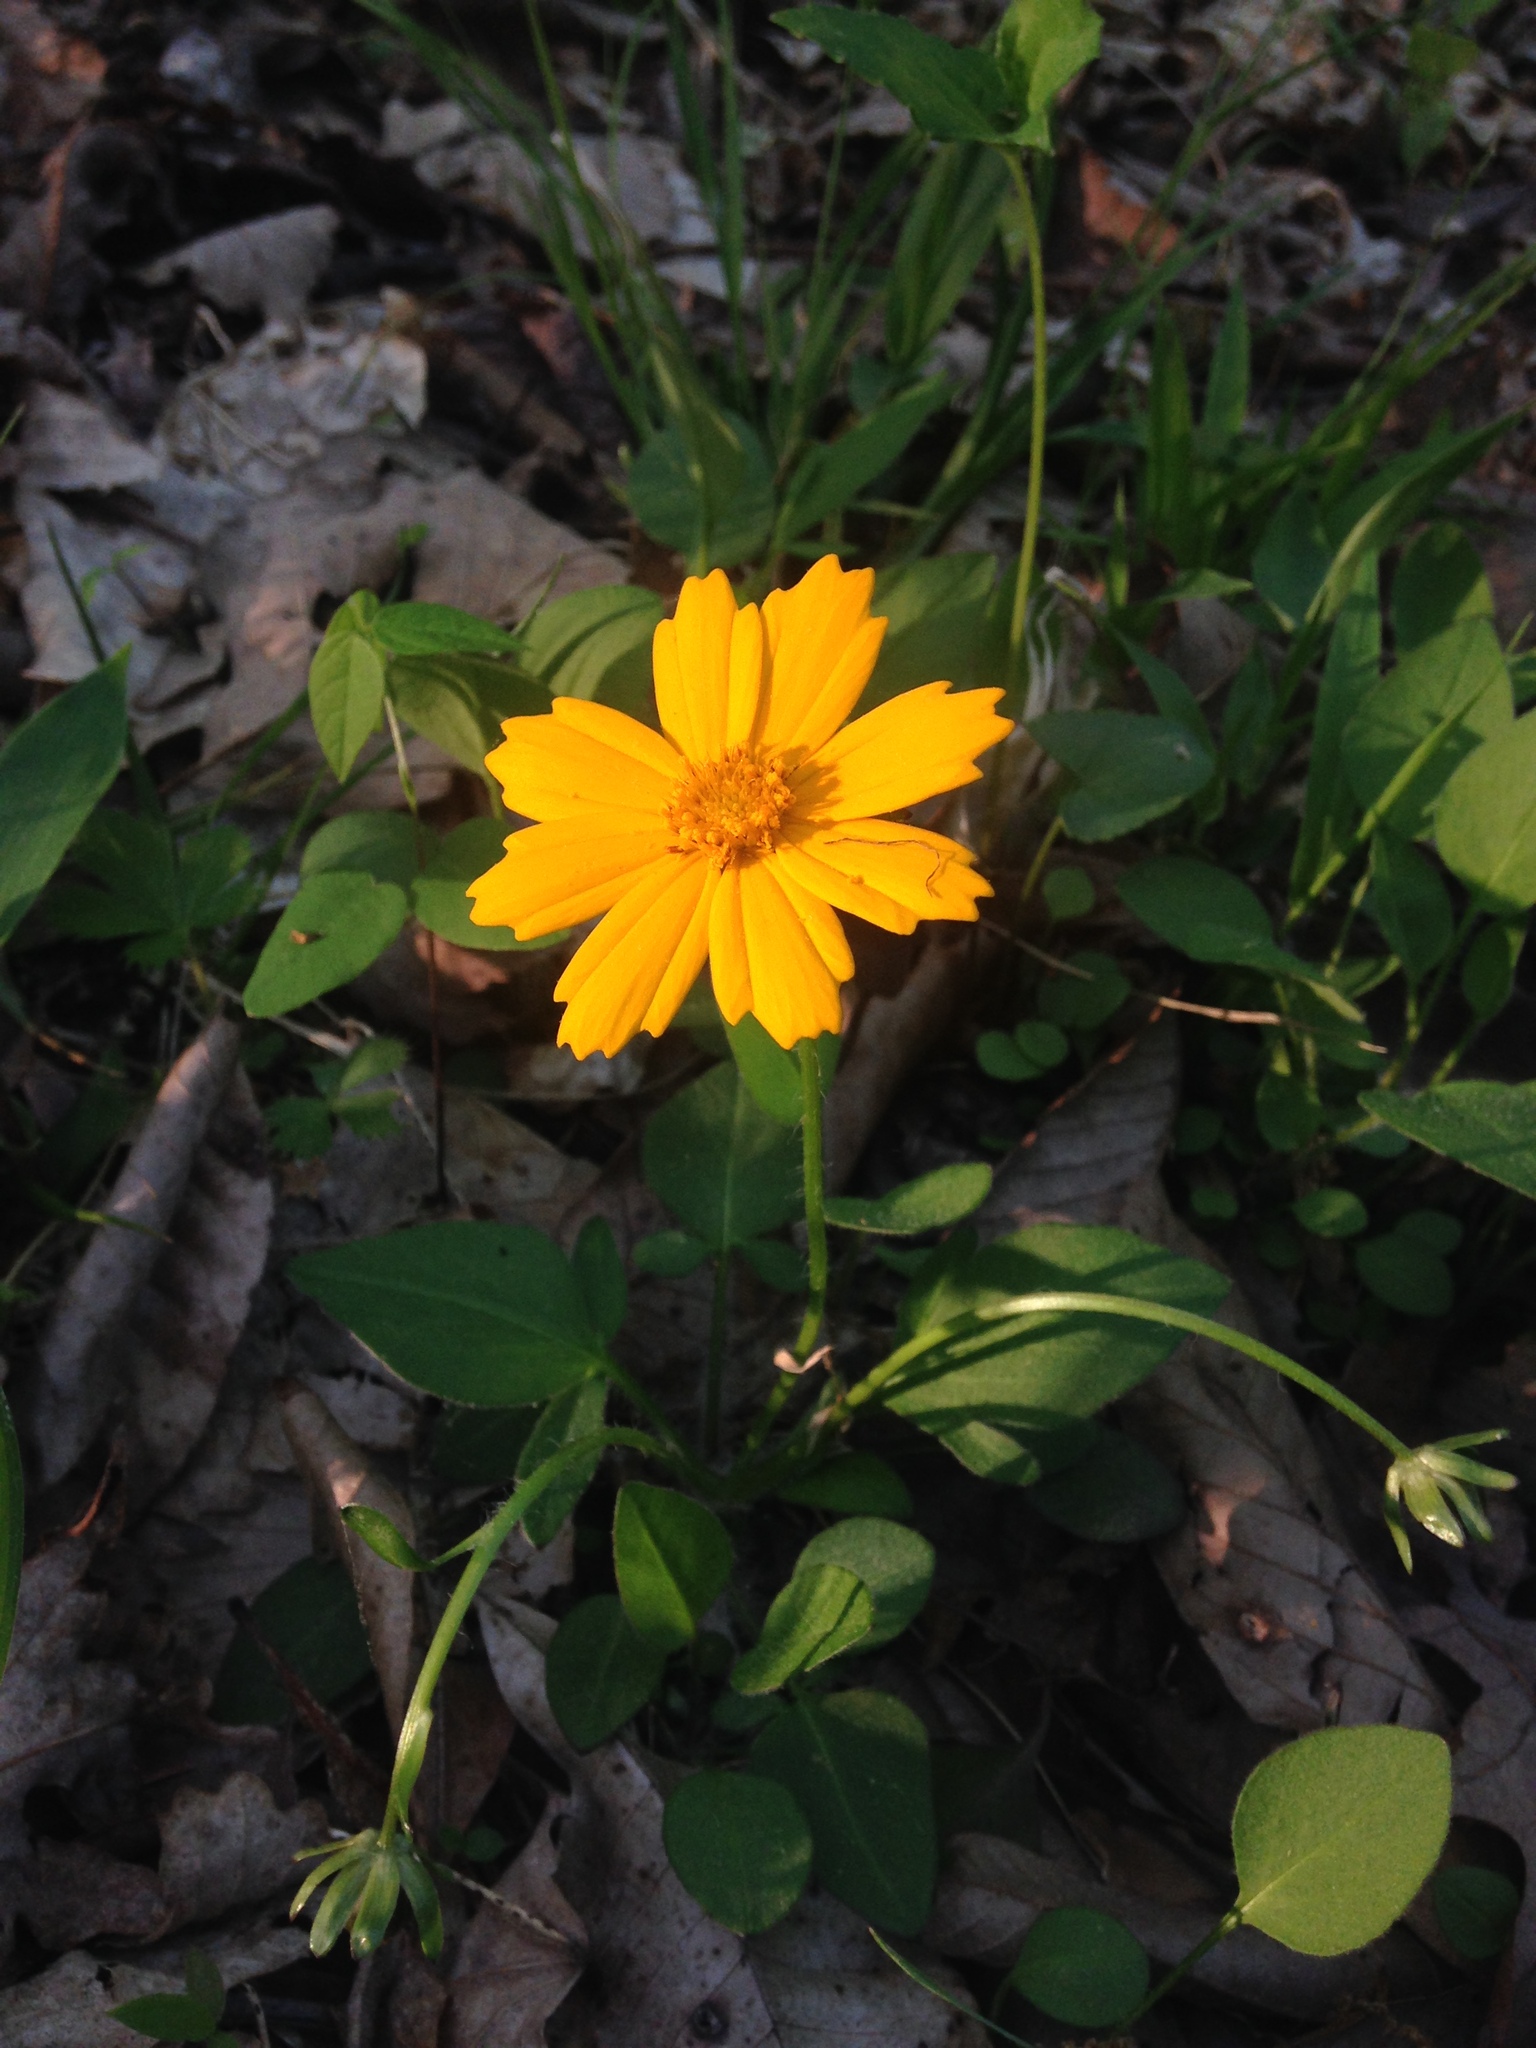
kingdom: Plantae
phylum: Tracheophyta
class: Magnoliopsida
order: Asterales
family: Asteraceae
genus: Coreopsis
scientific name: Coreopsis auriculata
